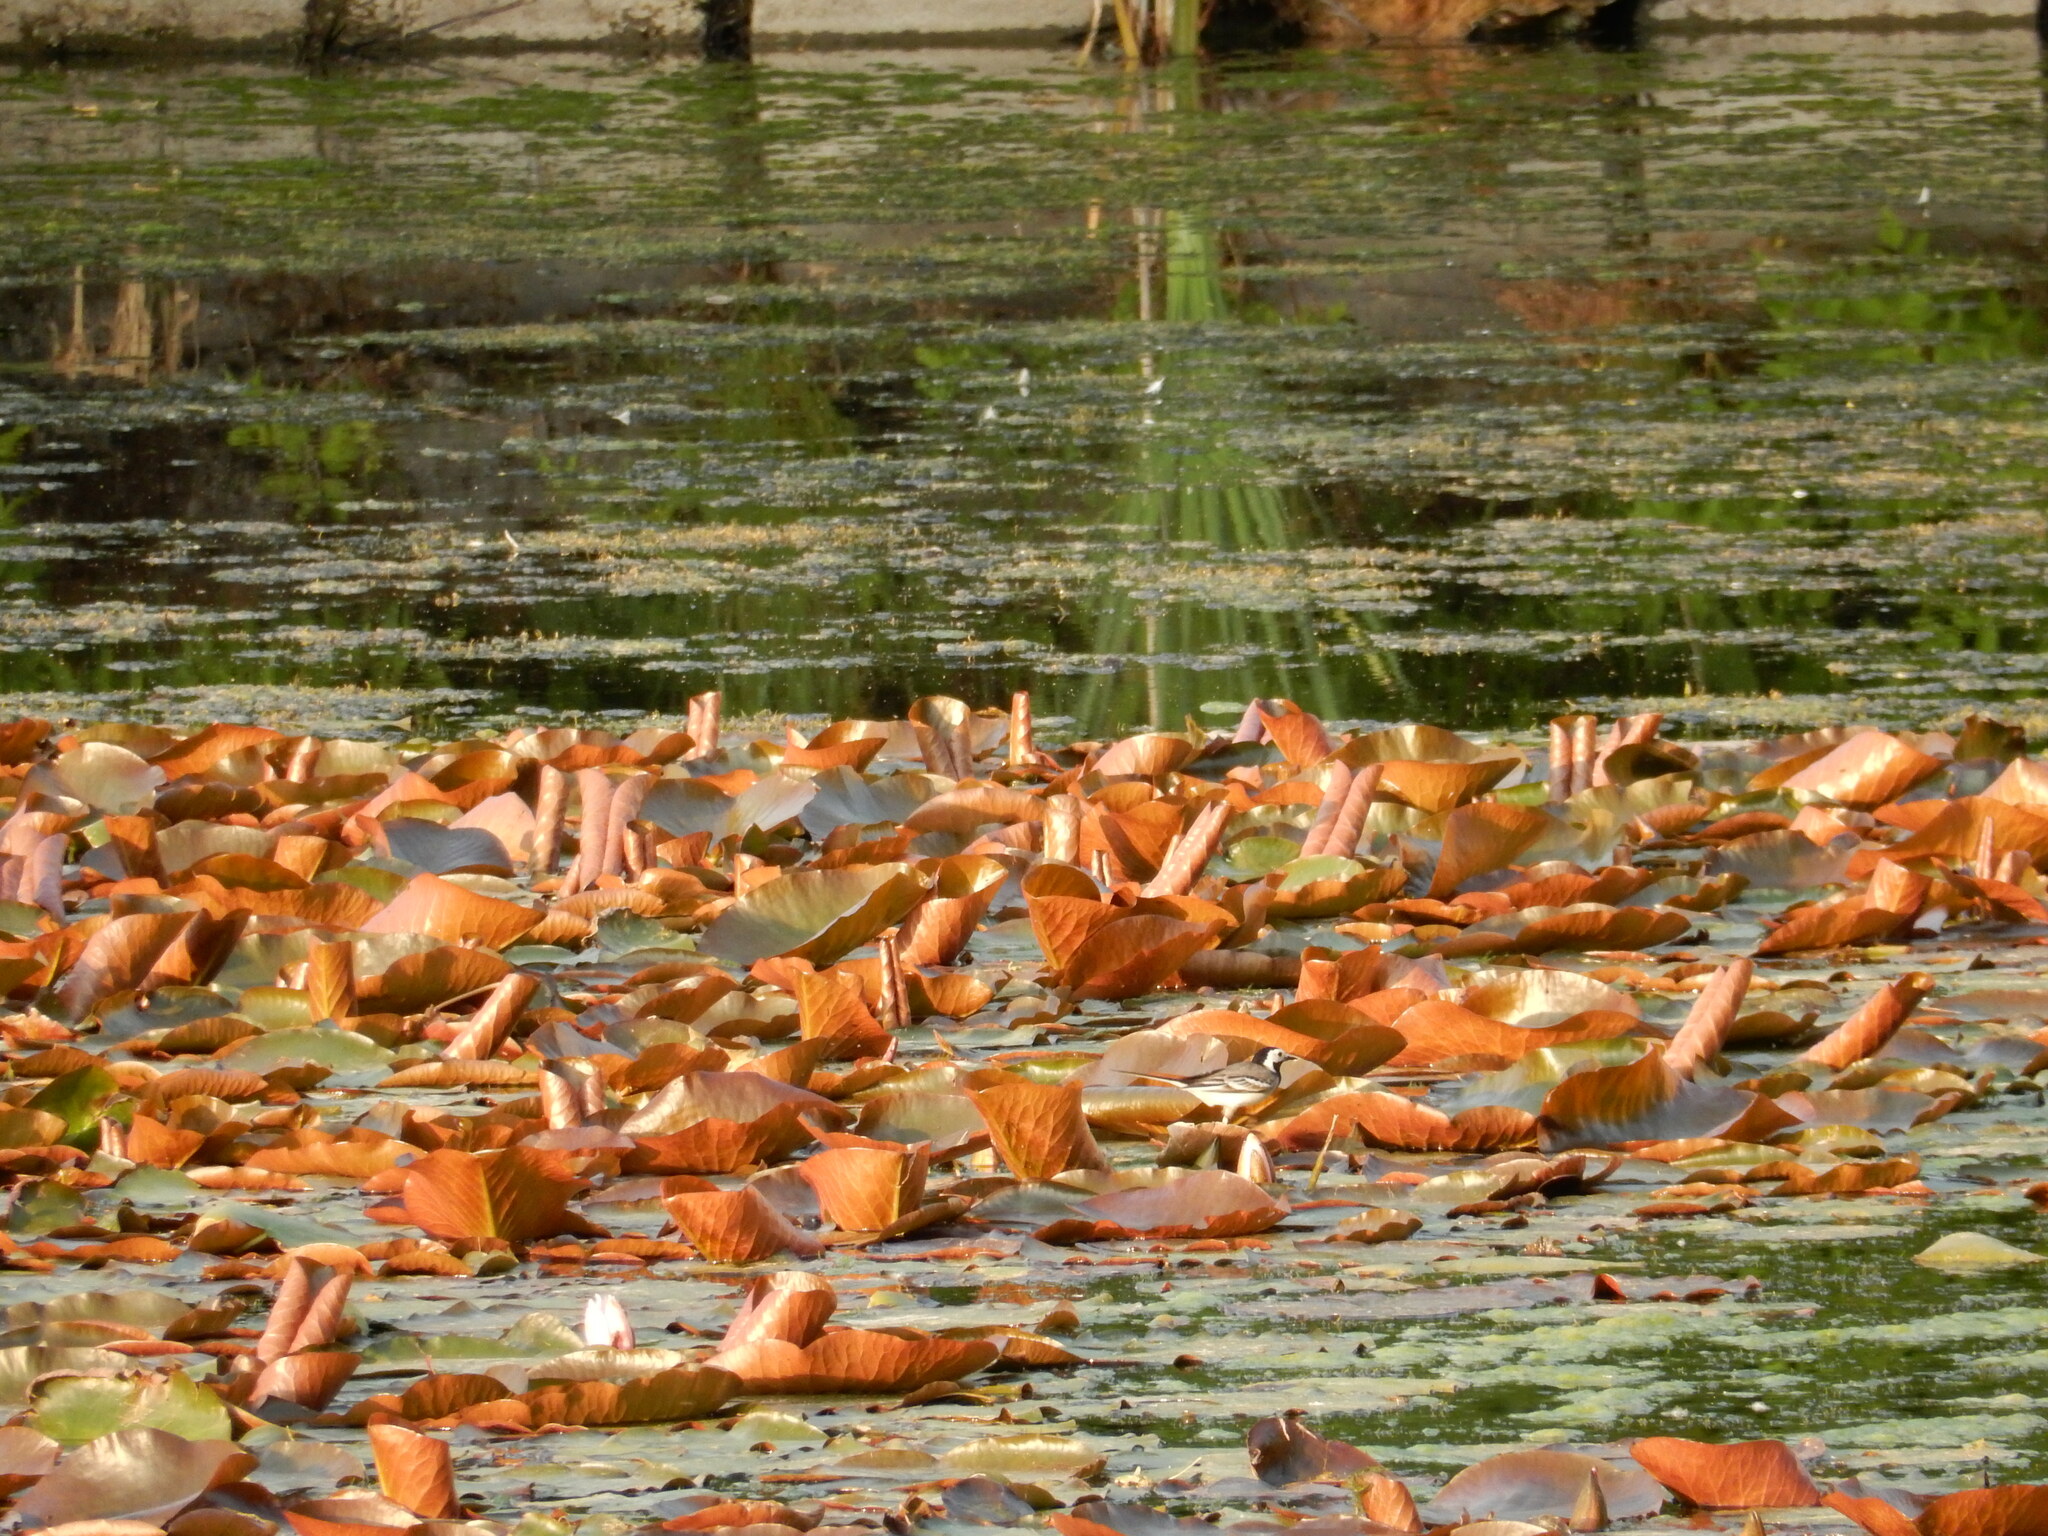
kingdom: Animalia
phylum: Chordata
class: Aves
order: Passeriformes
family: Motacillidae
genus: Motacilla
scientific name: Motacilla alba
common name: White wagtail
